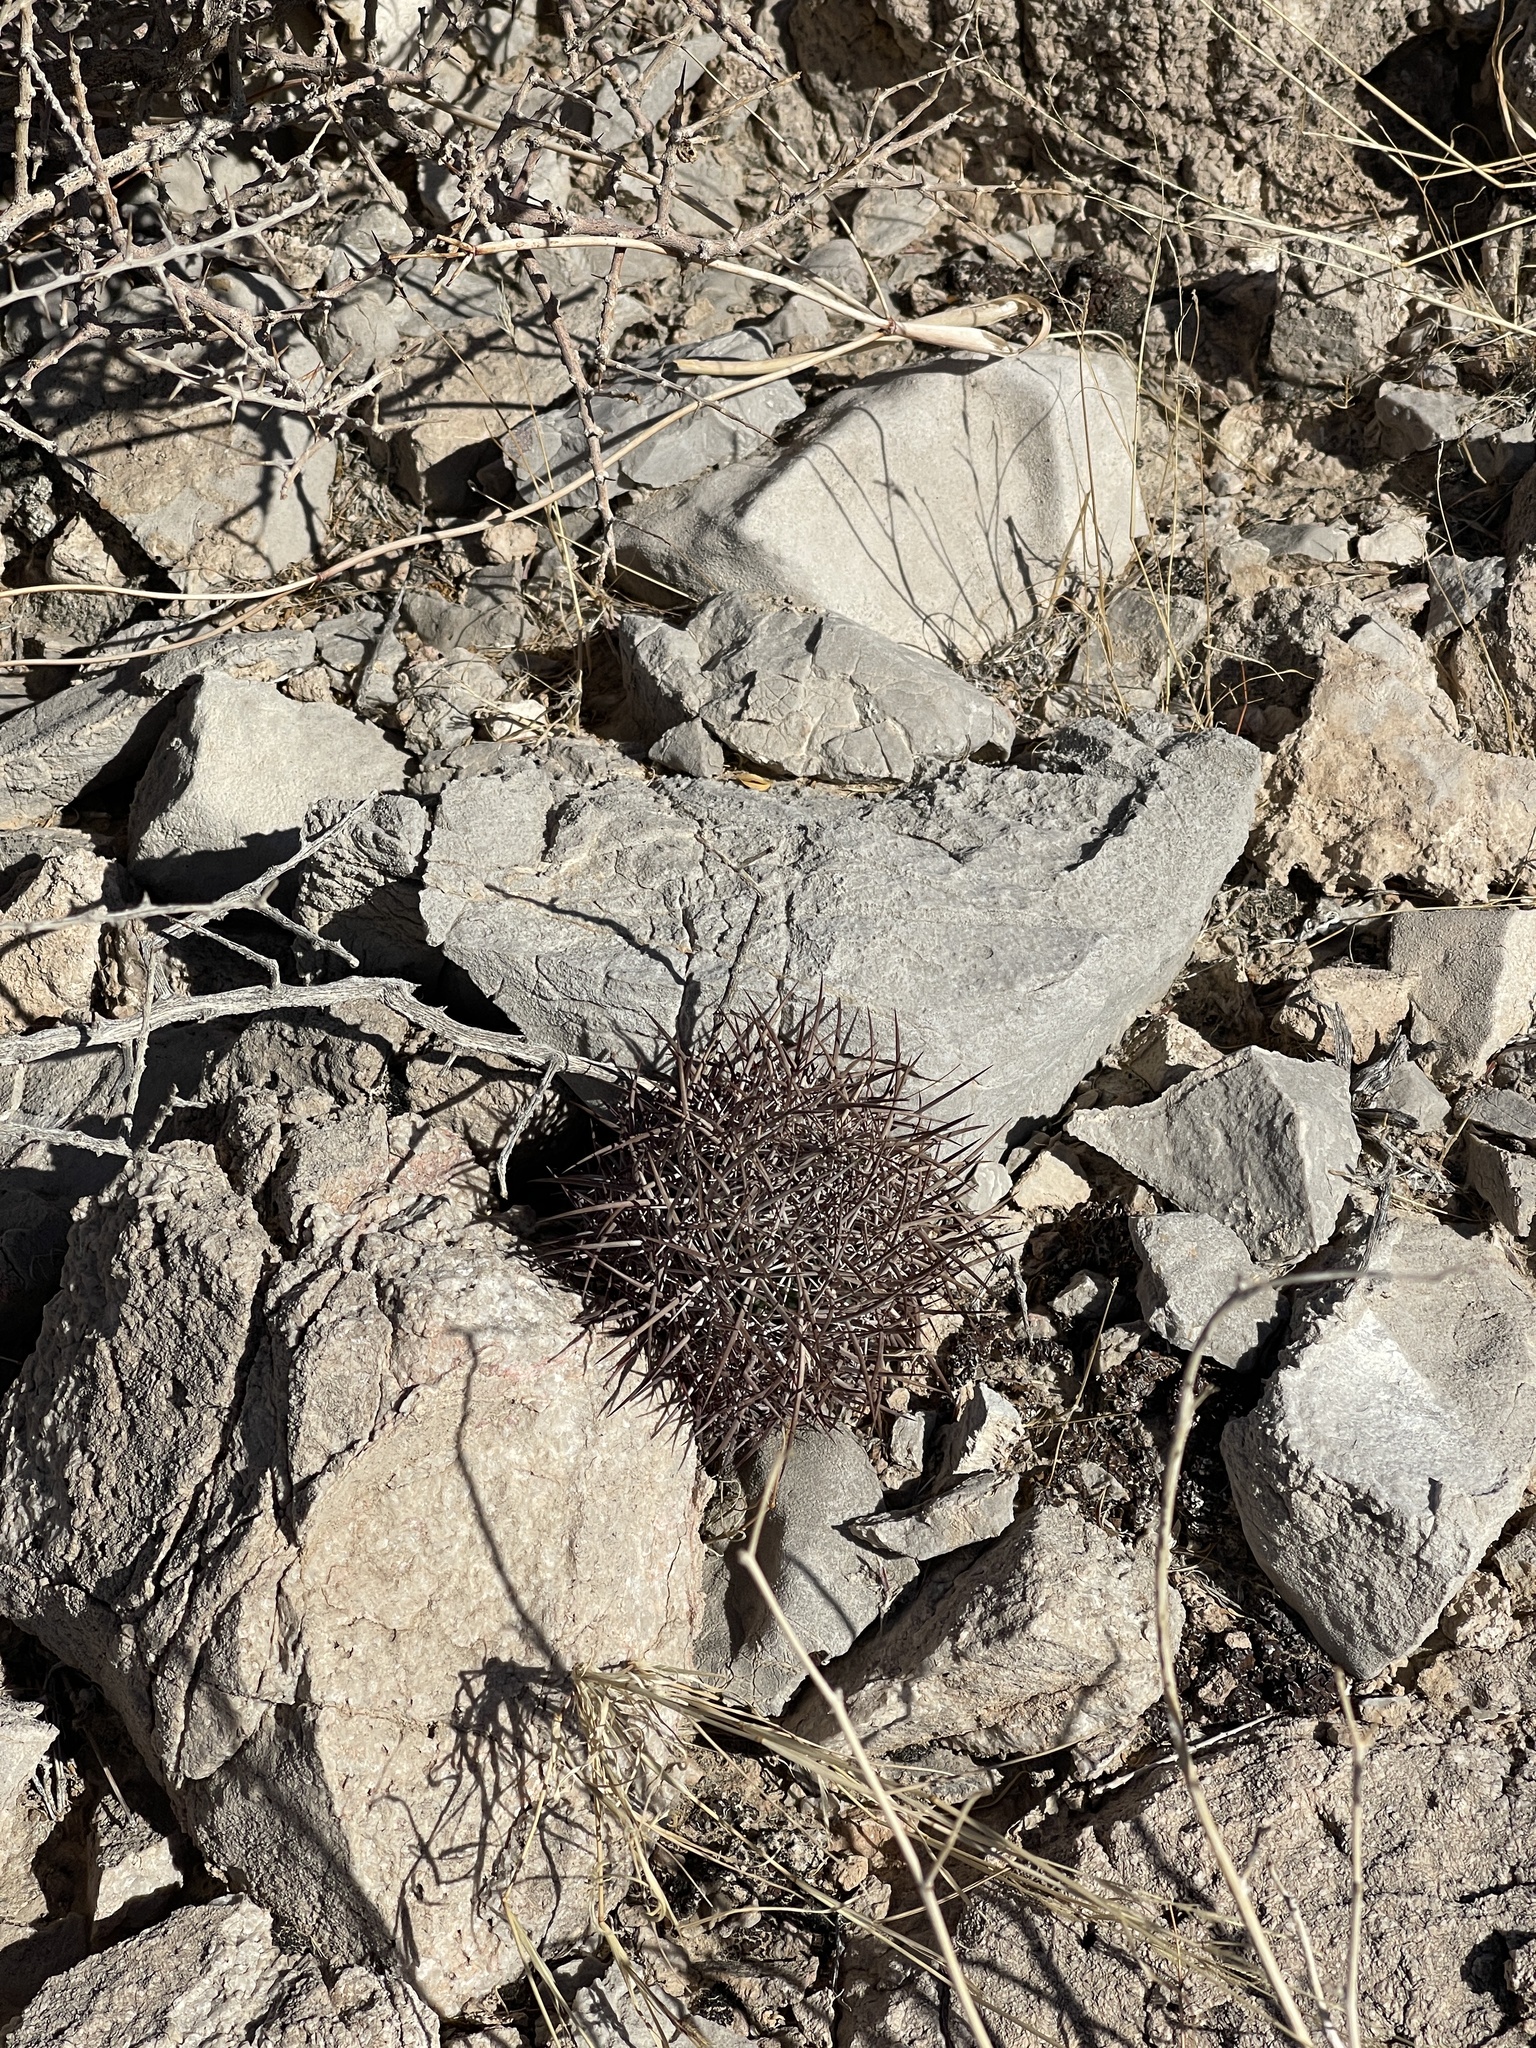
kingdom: Plantae
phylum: Tracheophyta
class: Magnoliopsida
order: Caryophyllales
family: Cactaceae
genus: Sclerocactus
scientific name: Sclerocactus johnsonii
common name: Eight-spine fishhook cactus
